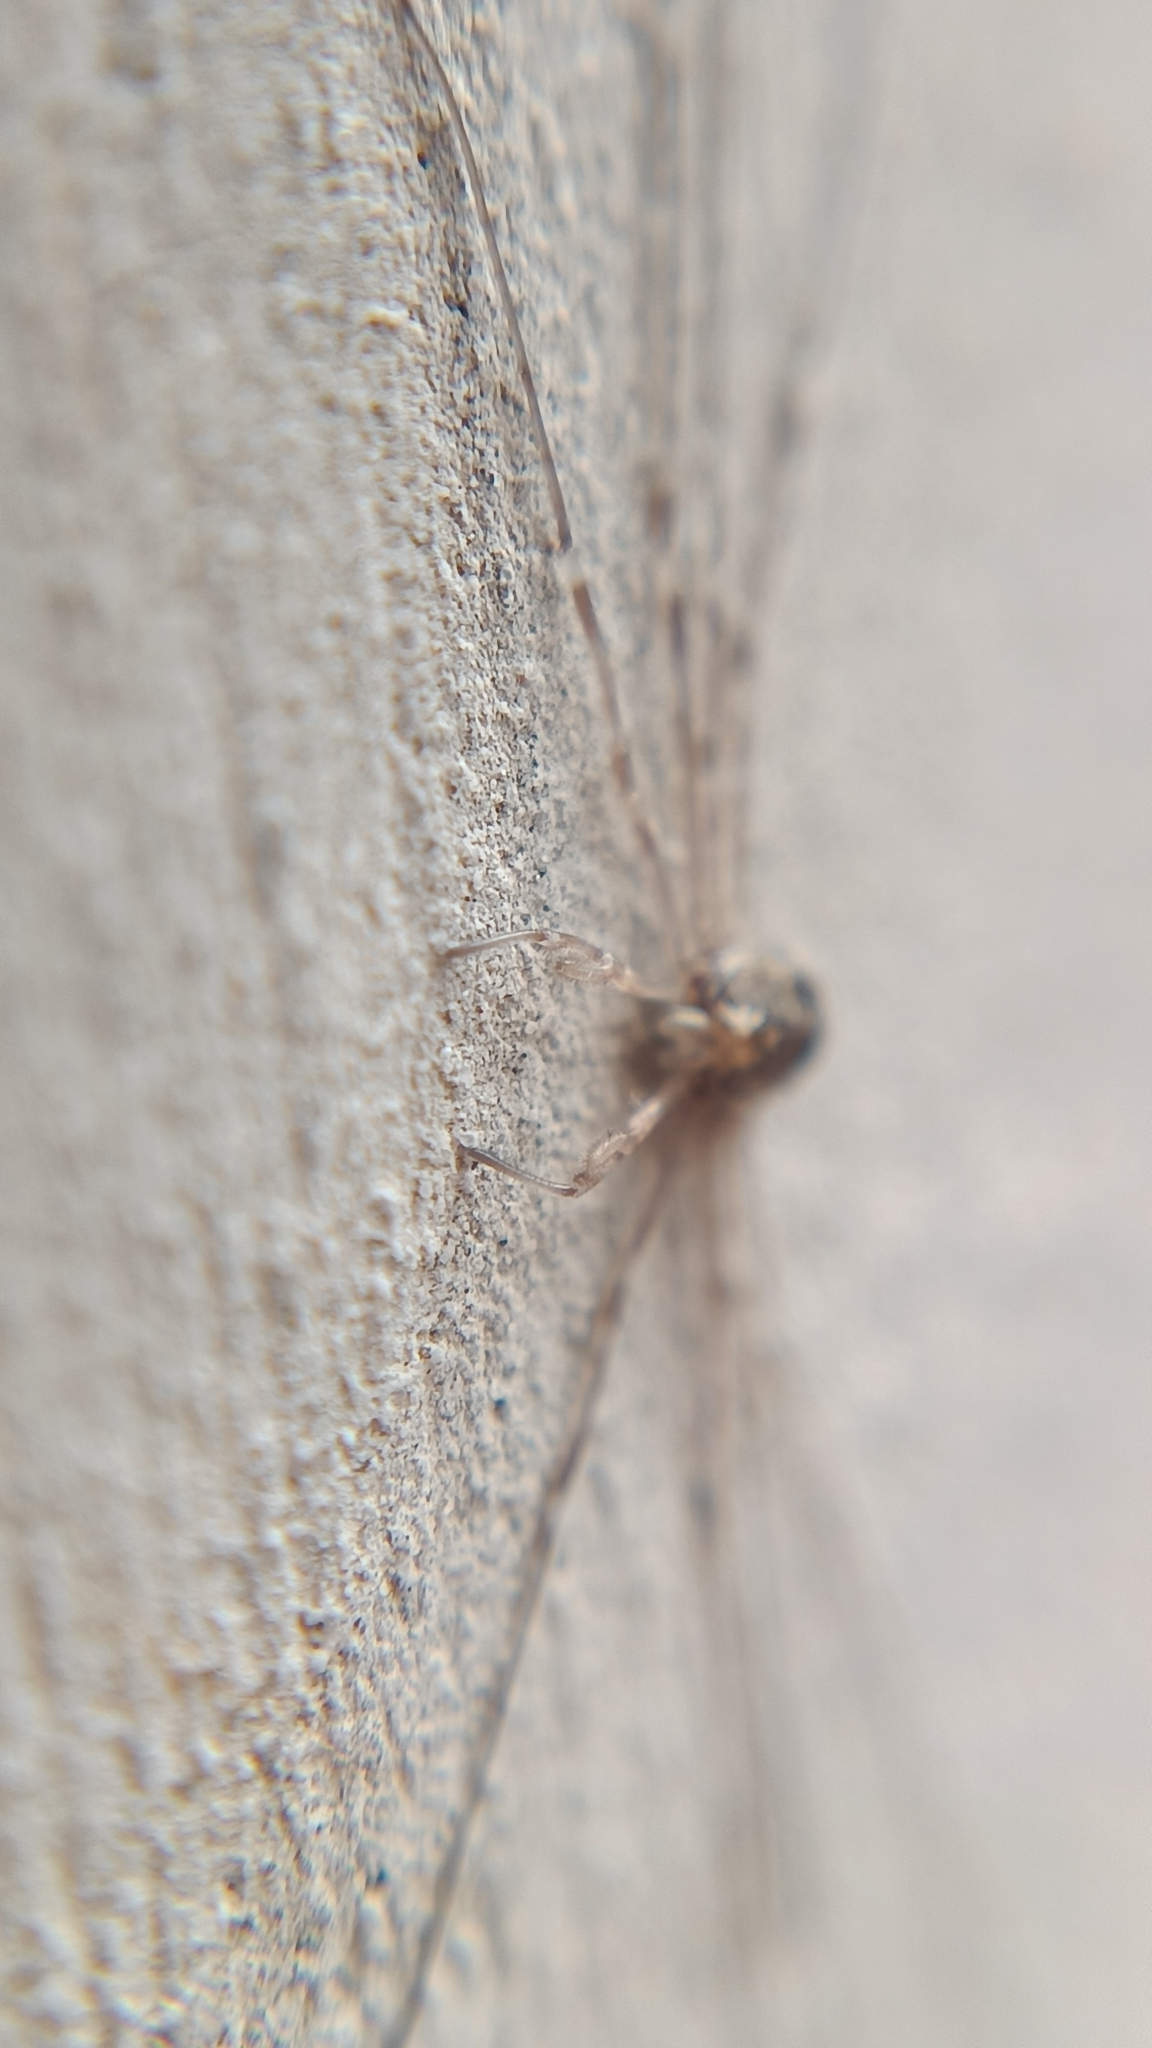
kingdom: Animalia
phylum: Arthropoda
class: Arachnida
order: Opiliones
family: Phalangiidae
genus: Dicranopalpus
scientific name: Dicranopalpus ramosus
